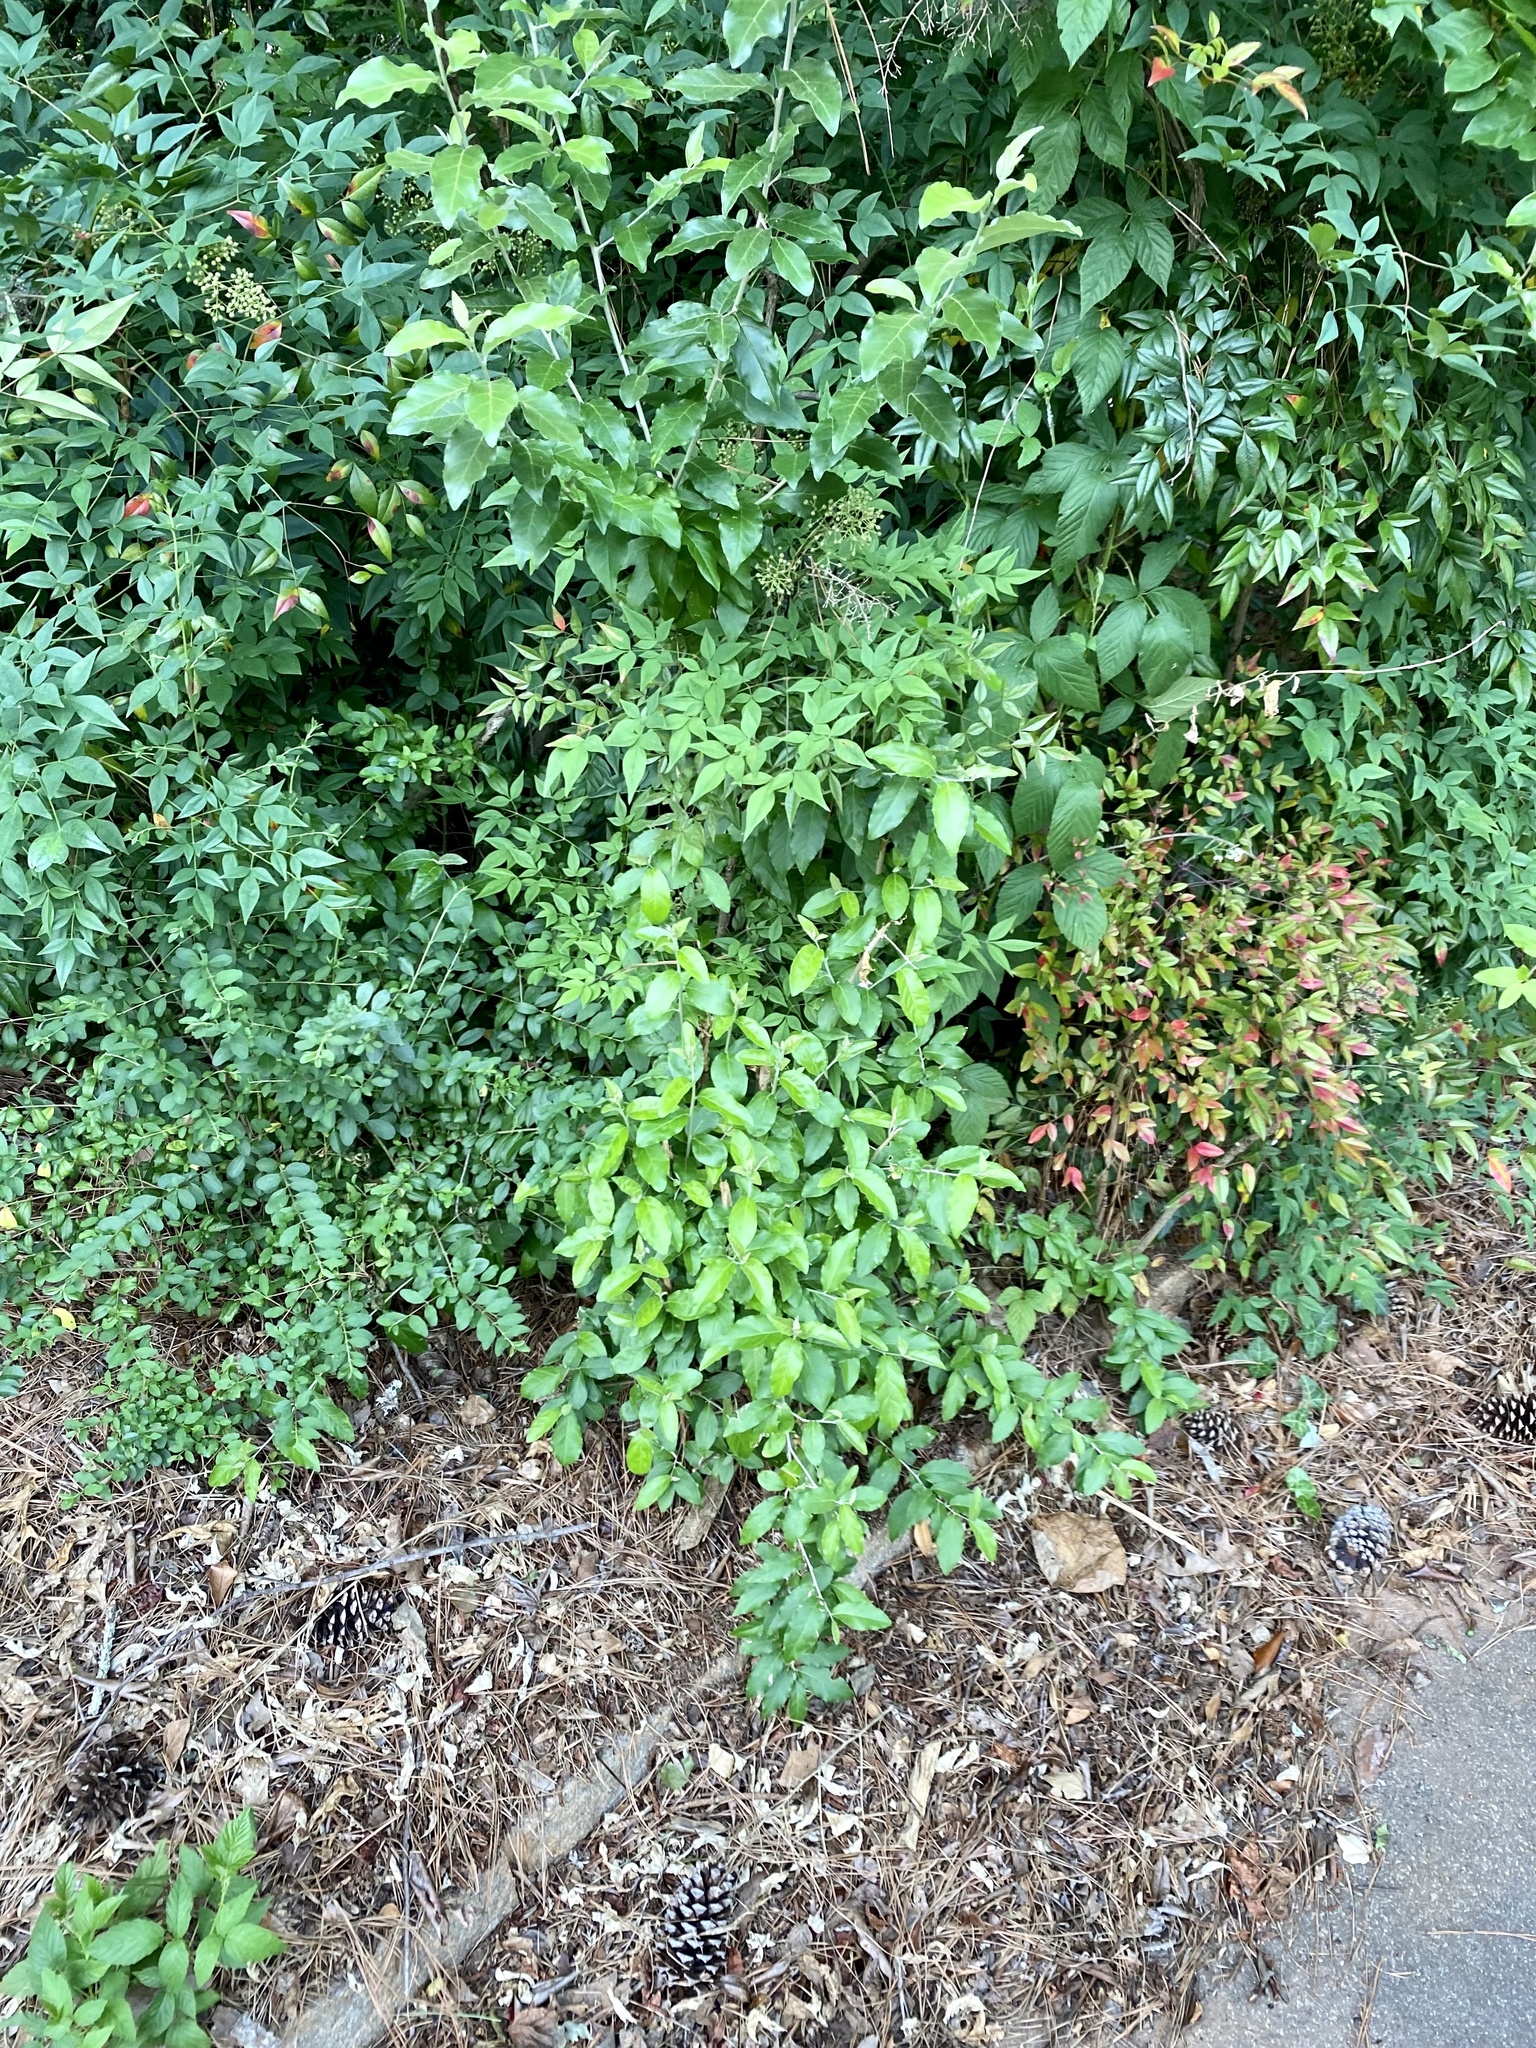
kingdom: Plantae
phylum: Tracheophyta
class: Magnoliopsida
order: Rosales
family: Elaeagnaceae
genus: Elaeagnus
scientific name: Elaeagnus umbellata
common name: Autumn olive
